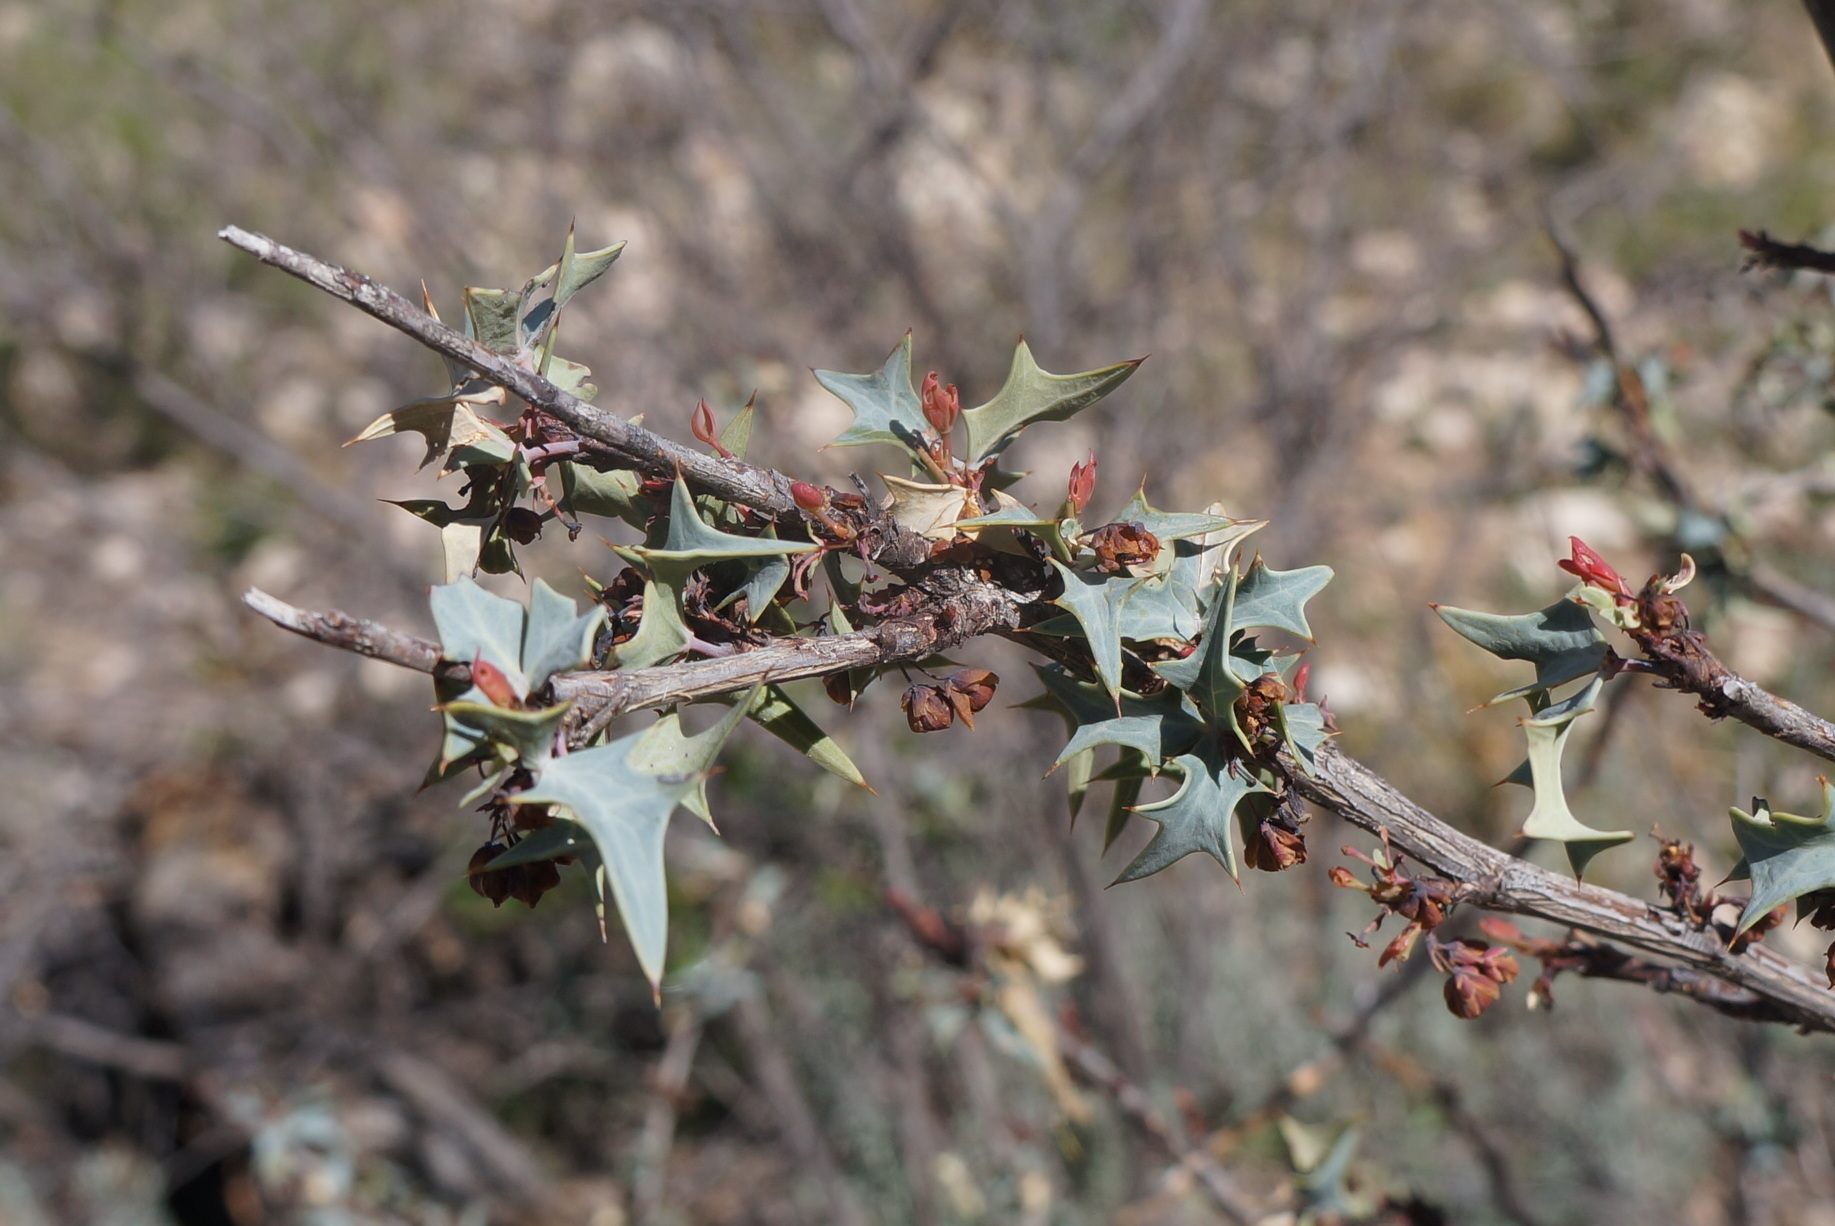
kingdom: Plantae
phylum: Tracheophyta
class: Magnoliopsida
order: Ranunculales
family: Berberidaceae
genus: Alloberberis
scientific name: Alloberberis trifoliolata
